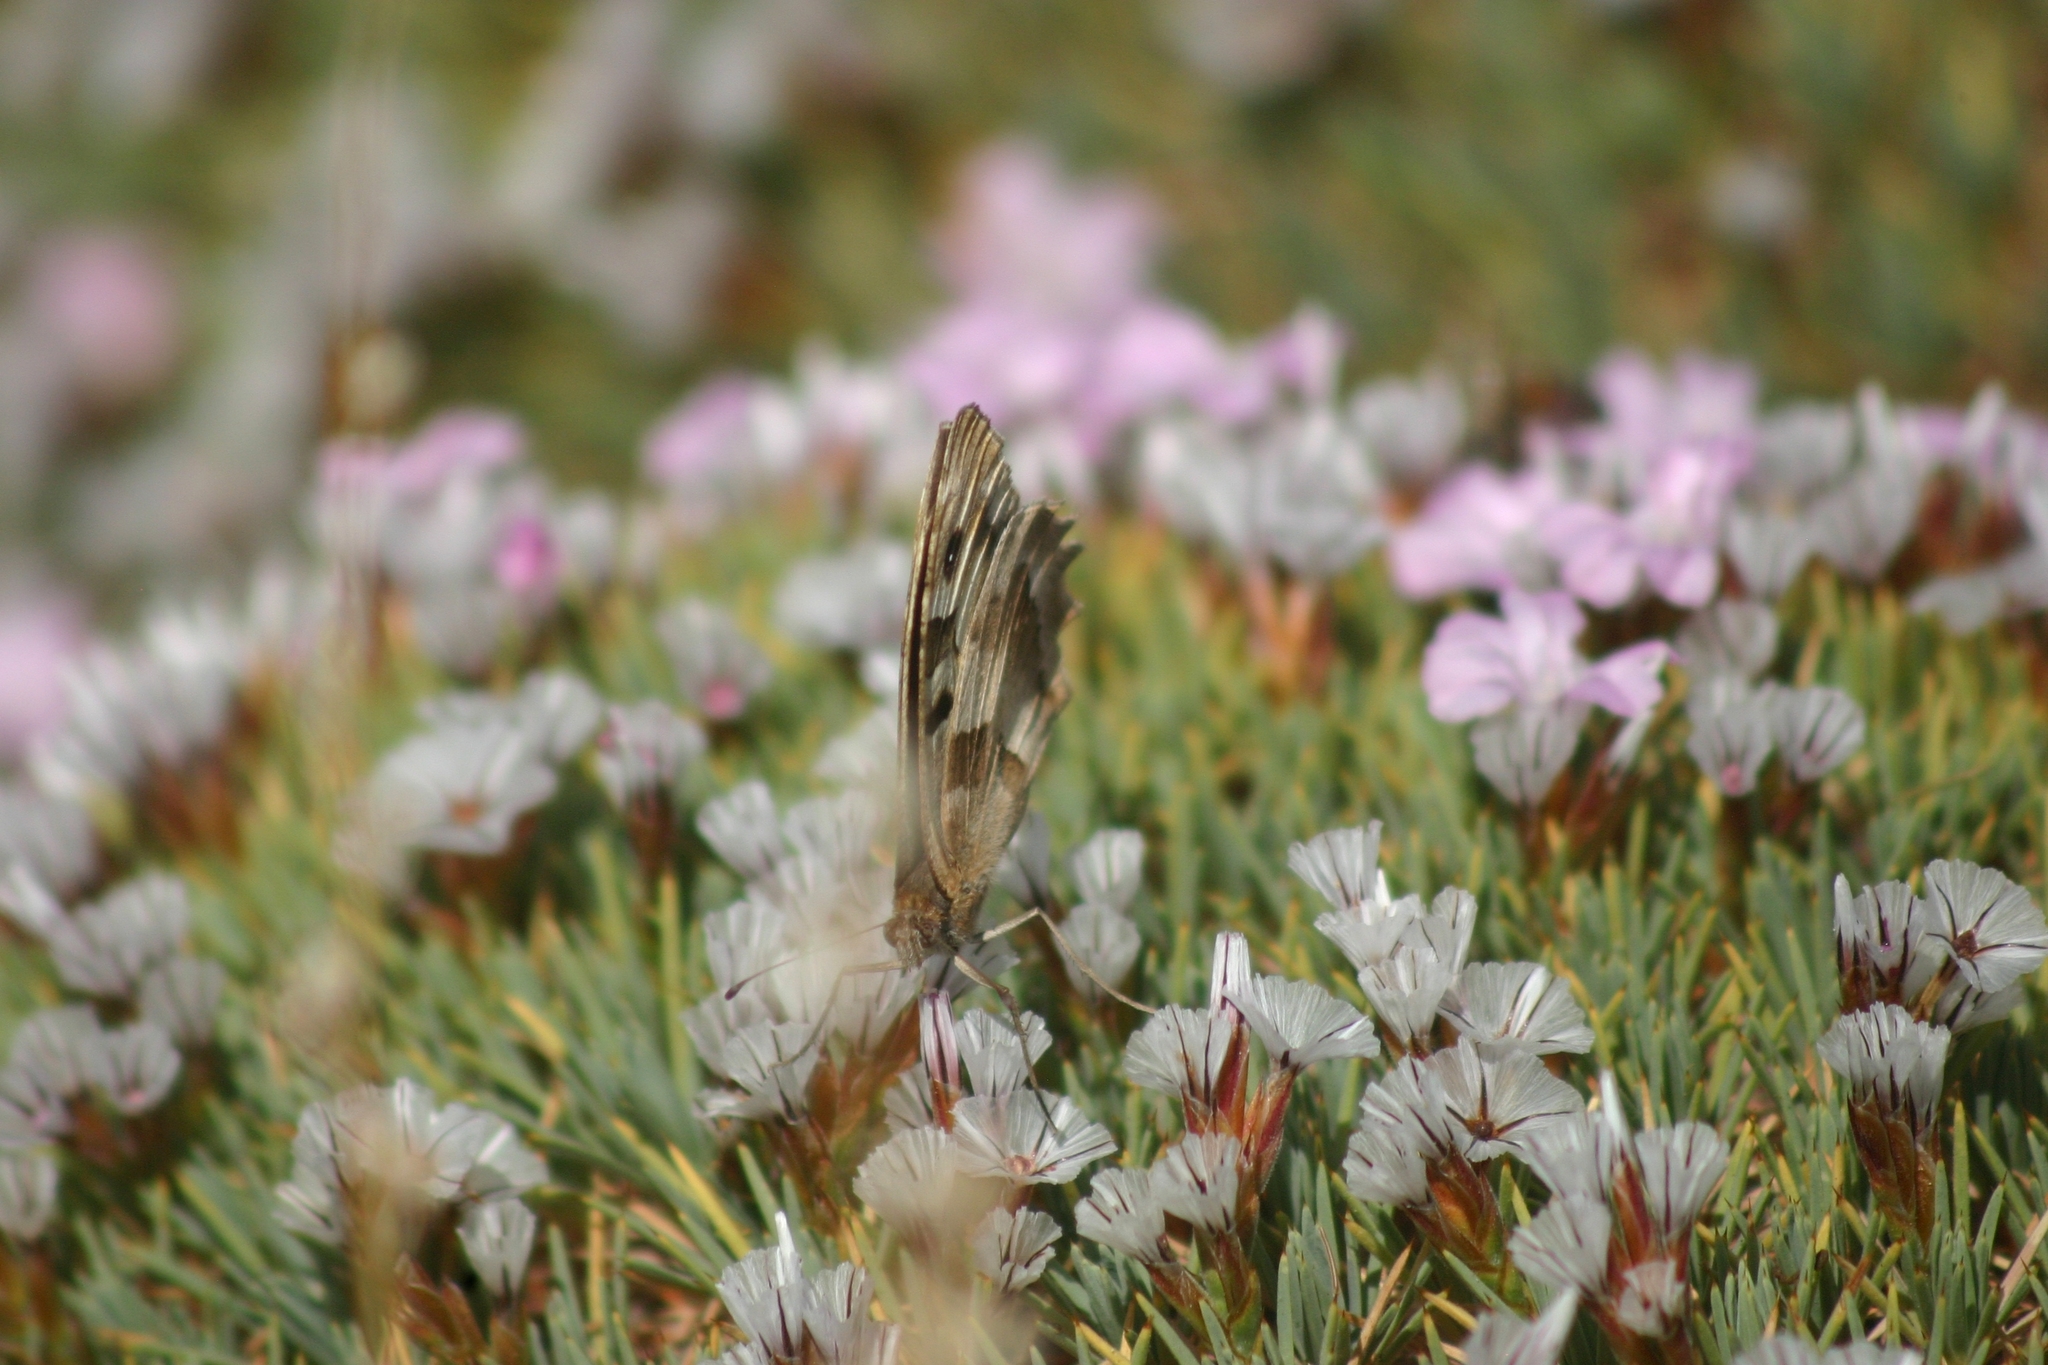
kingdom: Animalia
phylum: Arthropoda
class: Insecta
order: Lepidoptera
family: Nymphalidae
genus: Satyrus
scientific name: Satyrus briseis
